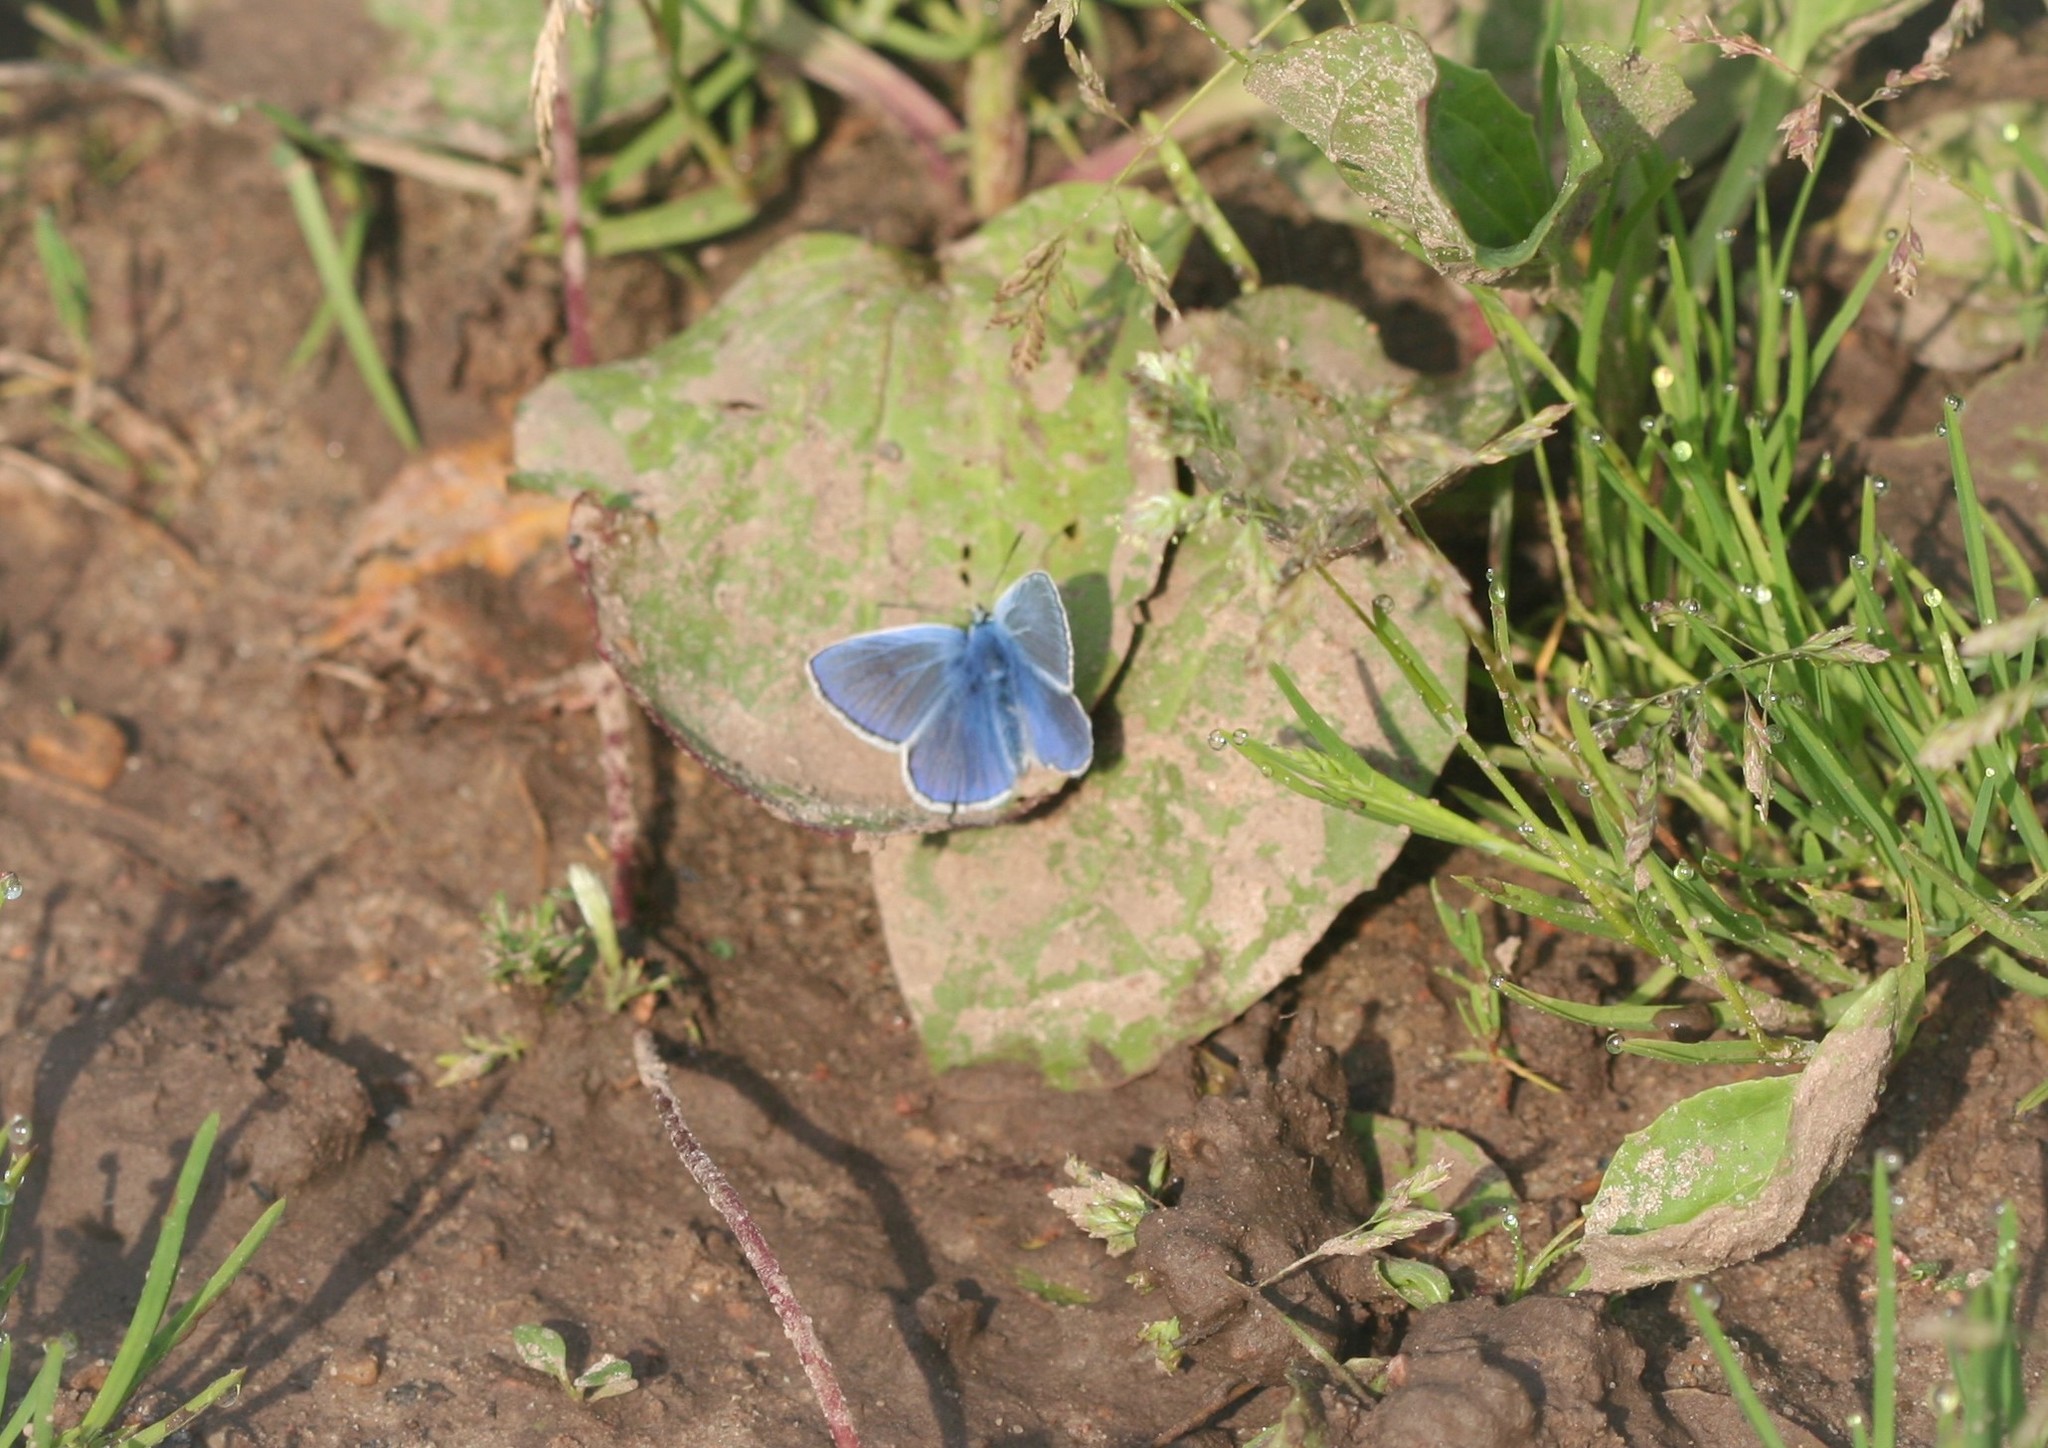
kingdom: Animalia
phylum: Arthropoda
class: Insecta
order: Lepidoptera
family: Lycaenidae
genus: Polyommatus
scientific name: Polyommatus icarus
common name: Common blue
